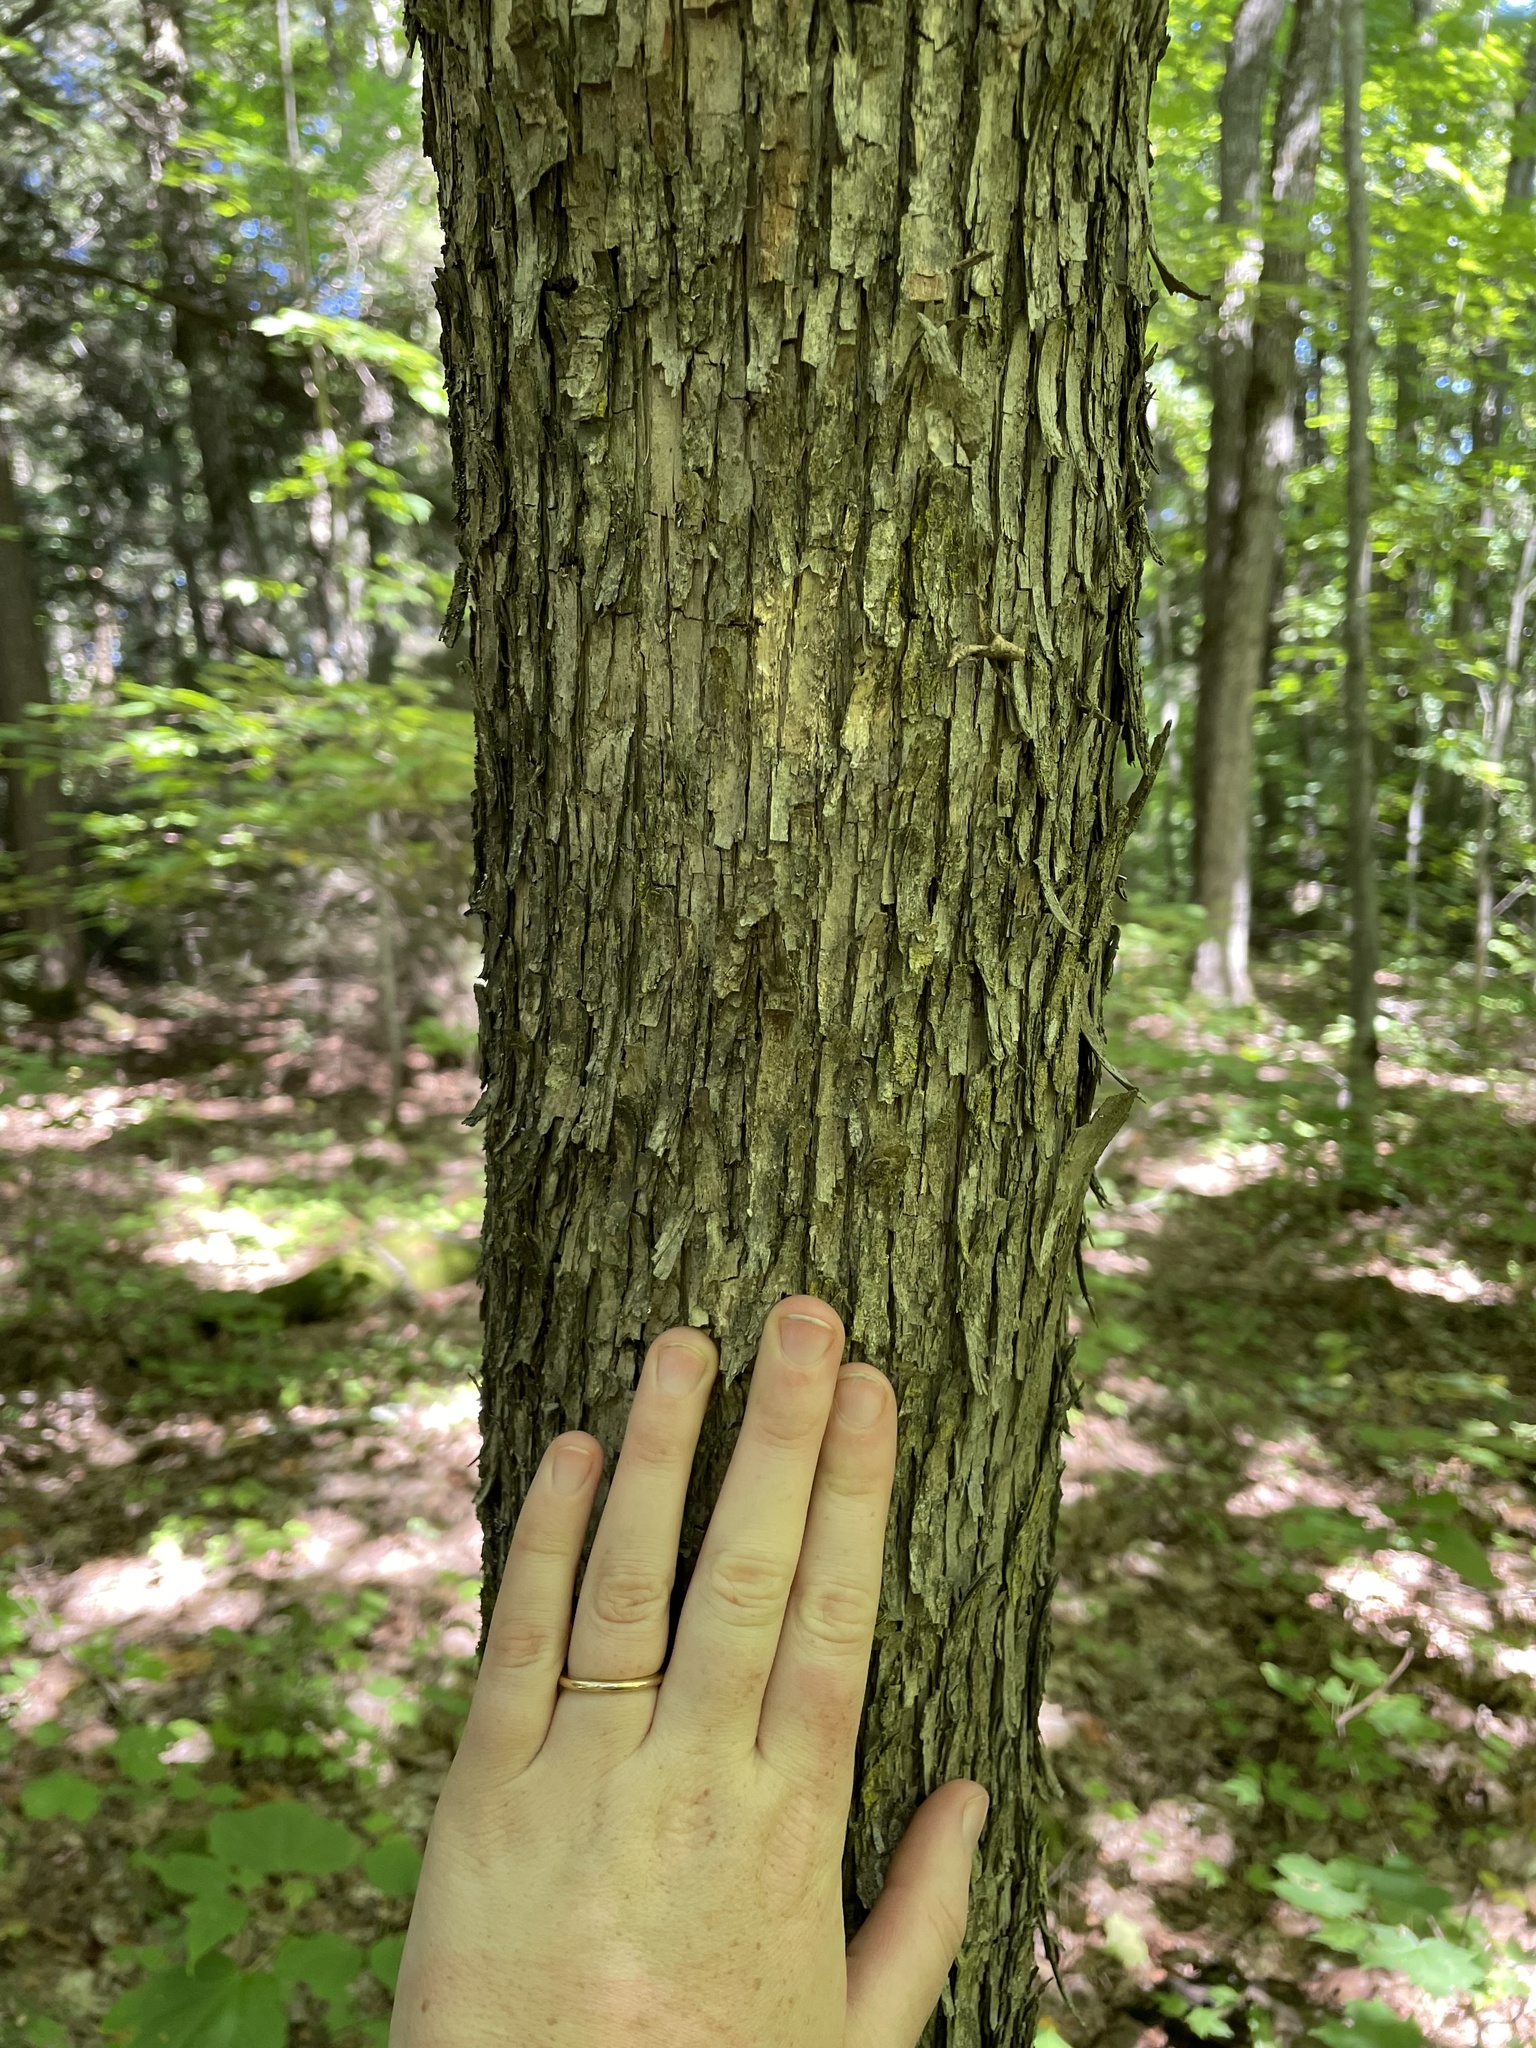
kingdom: Plantae
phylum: Tracheophyta
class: Magnoliopsida
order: Fagales
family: Betulaceae
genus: Ostrya
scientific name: Ostrya virginiana
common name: Ironwood
